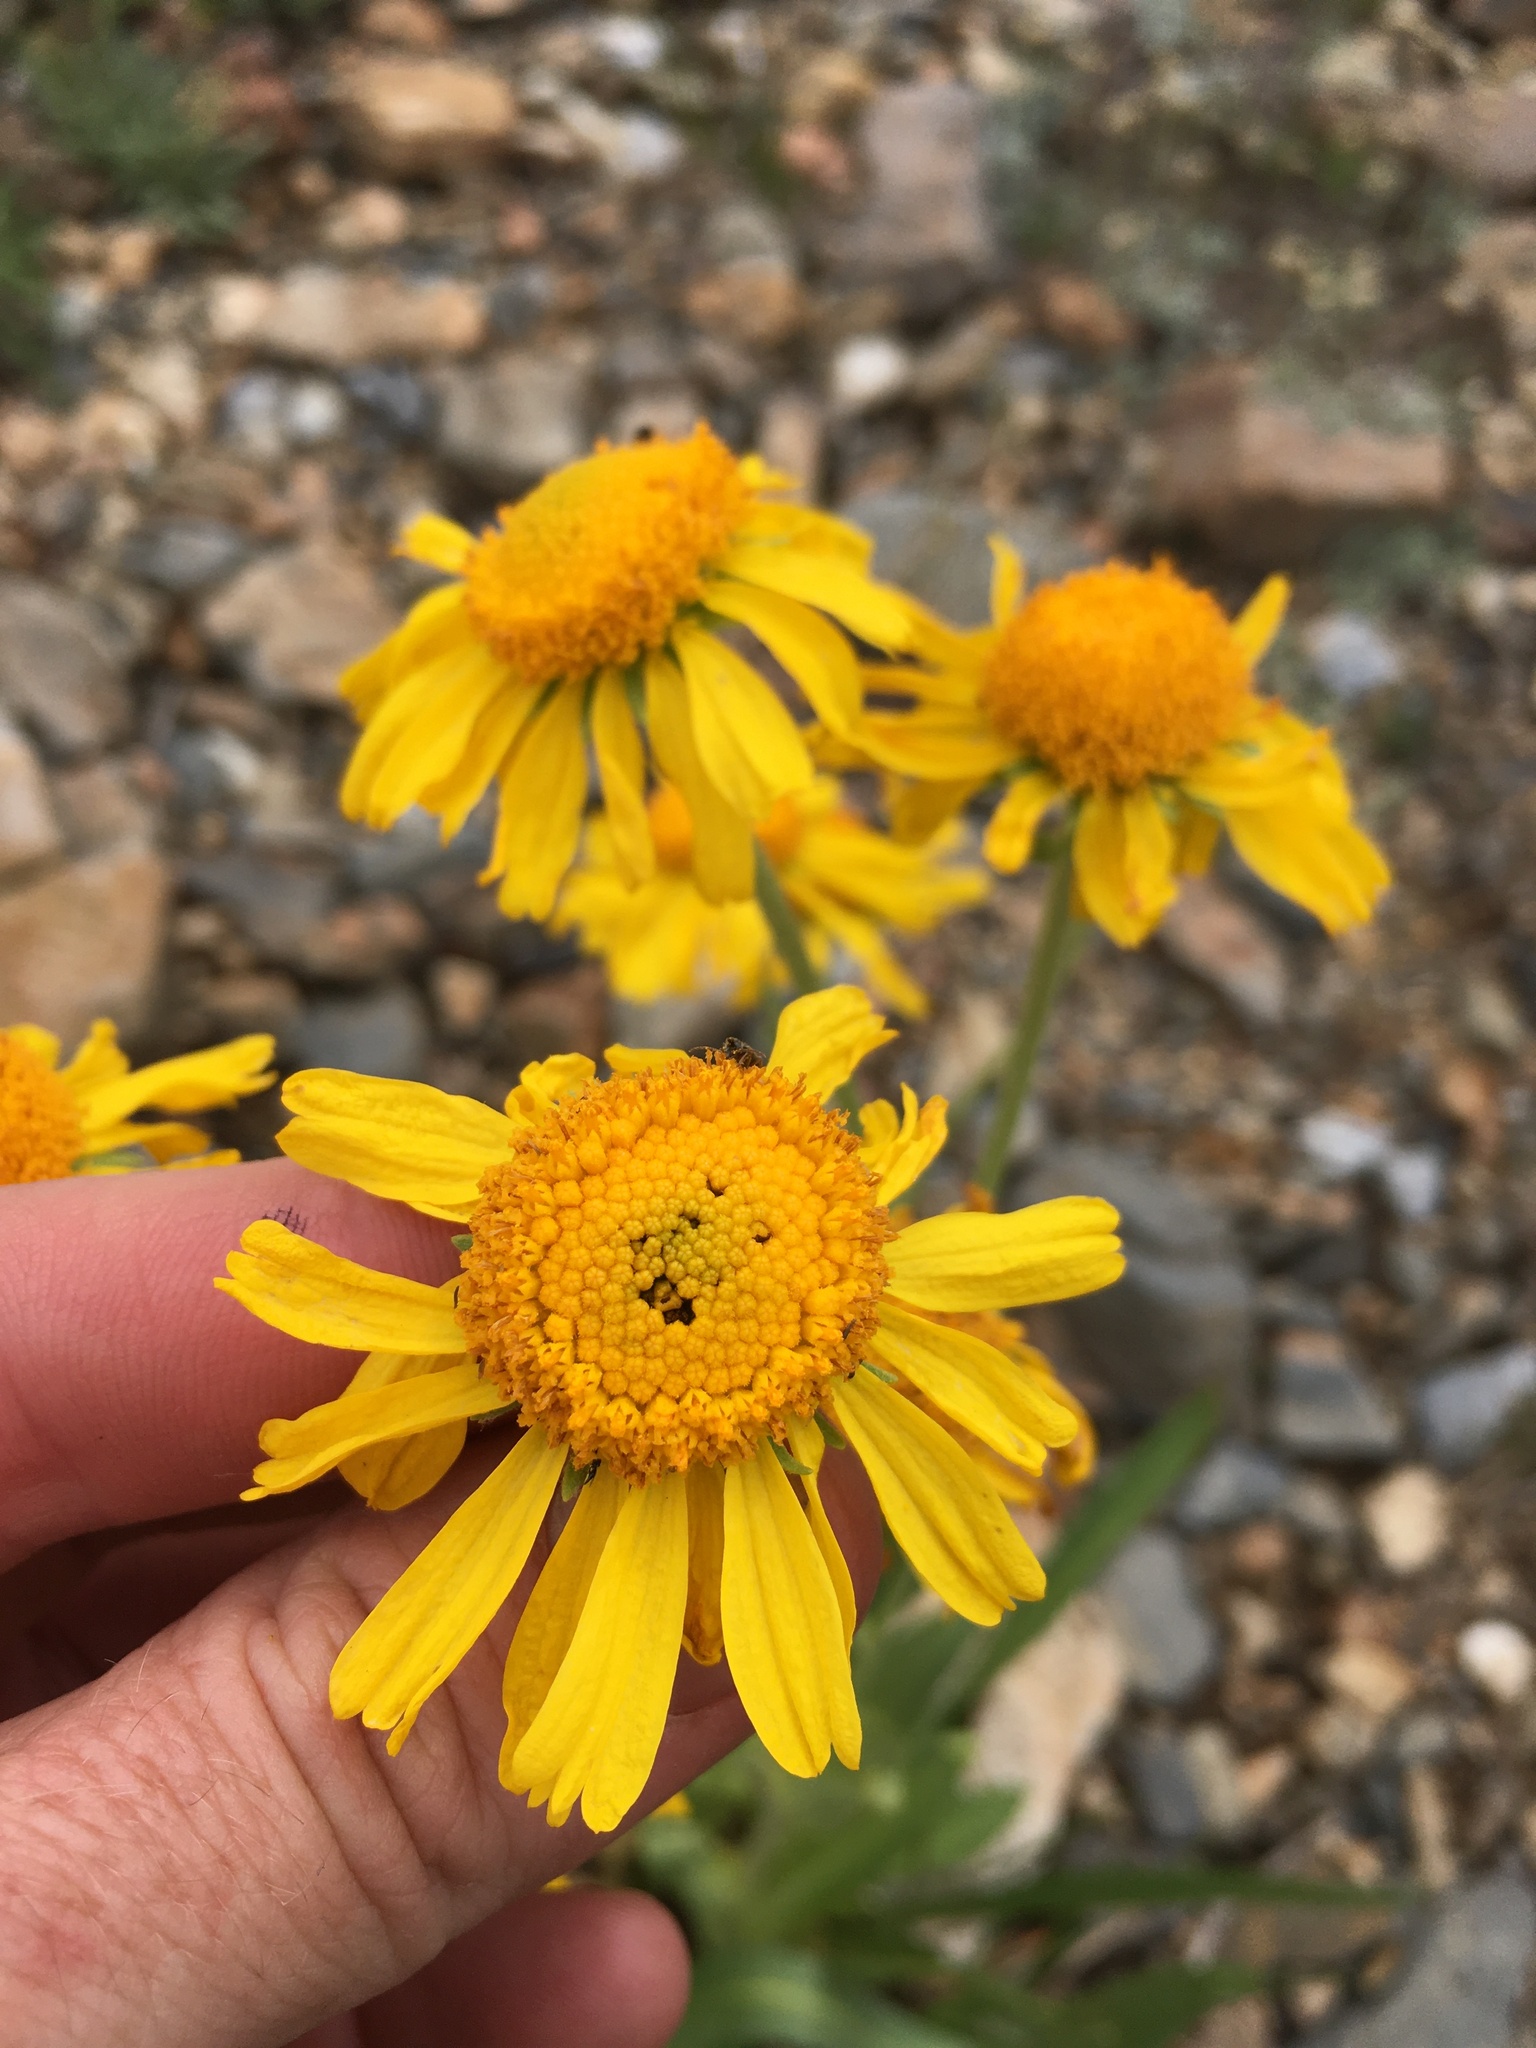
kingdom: Plantae
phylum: Tracheophyta
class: Magnoliopsida
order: Asterales
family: Asteraceae
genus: Hymenoxys
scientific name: Hymenoxys hoopesii
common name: Orange-sneezeweed
